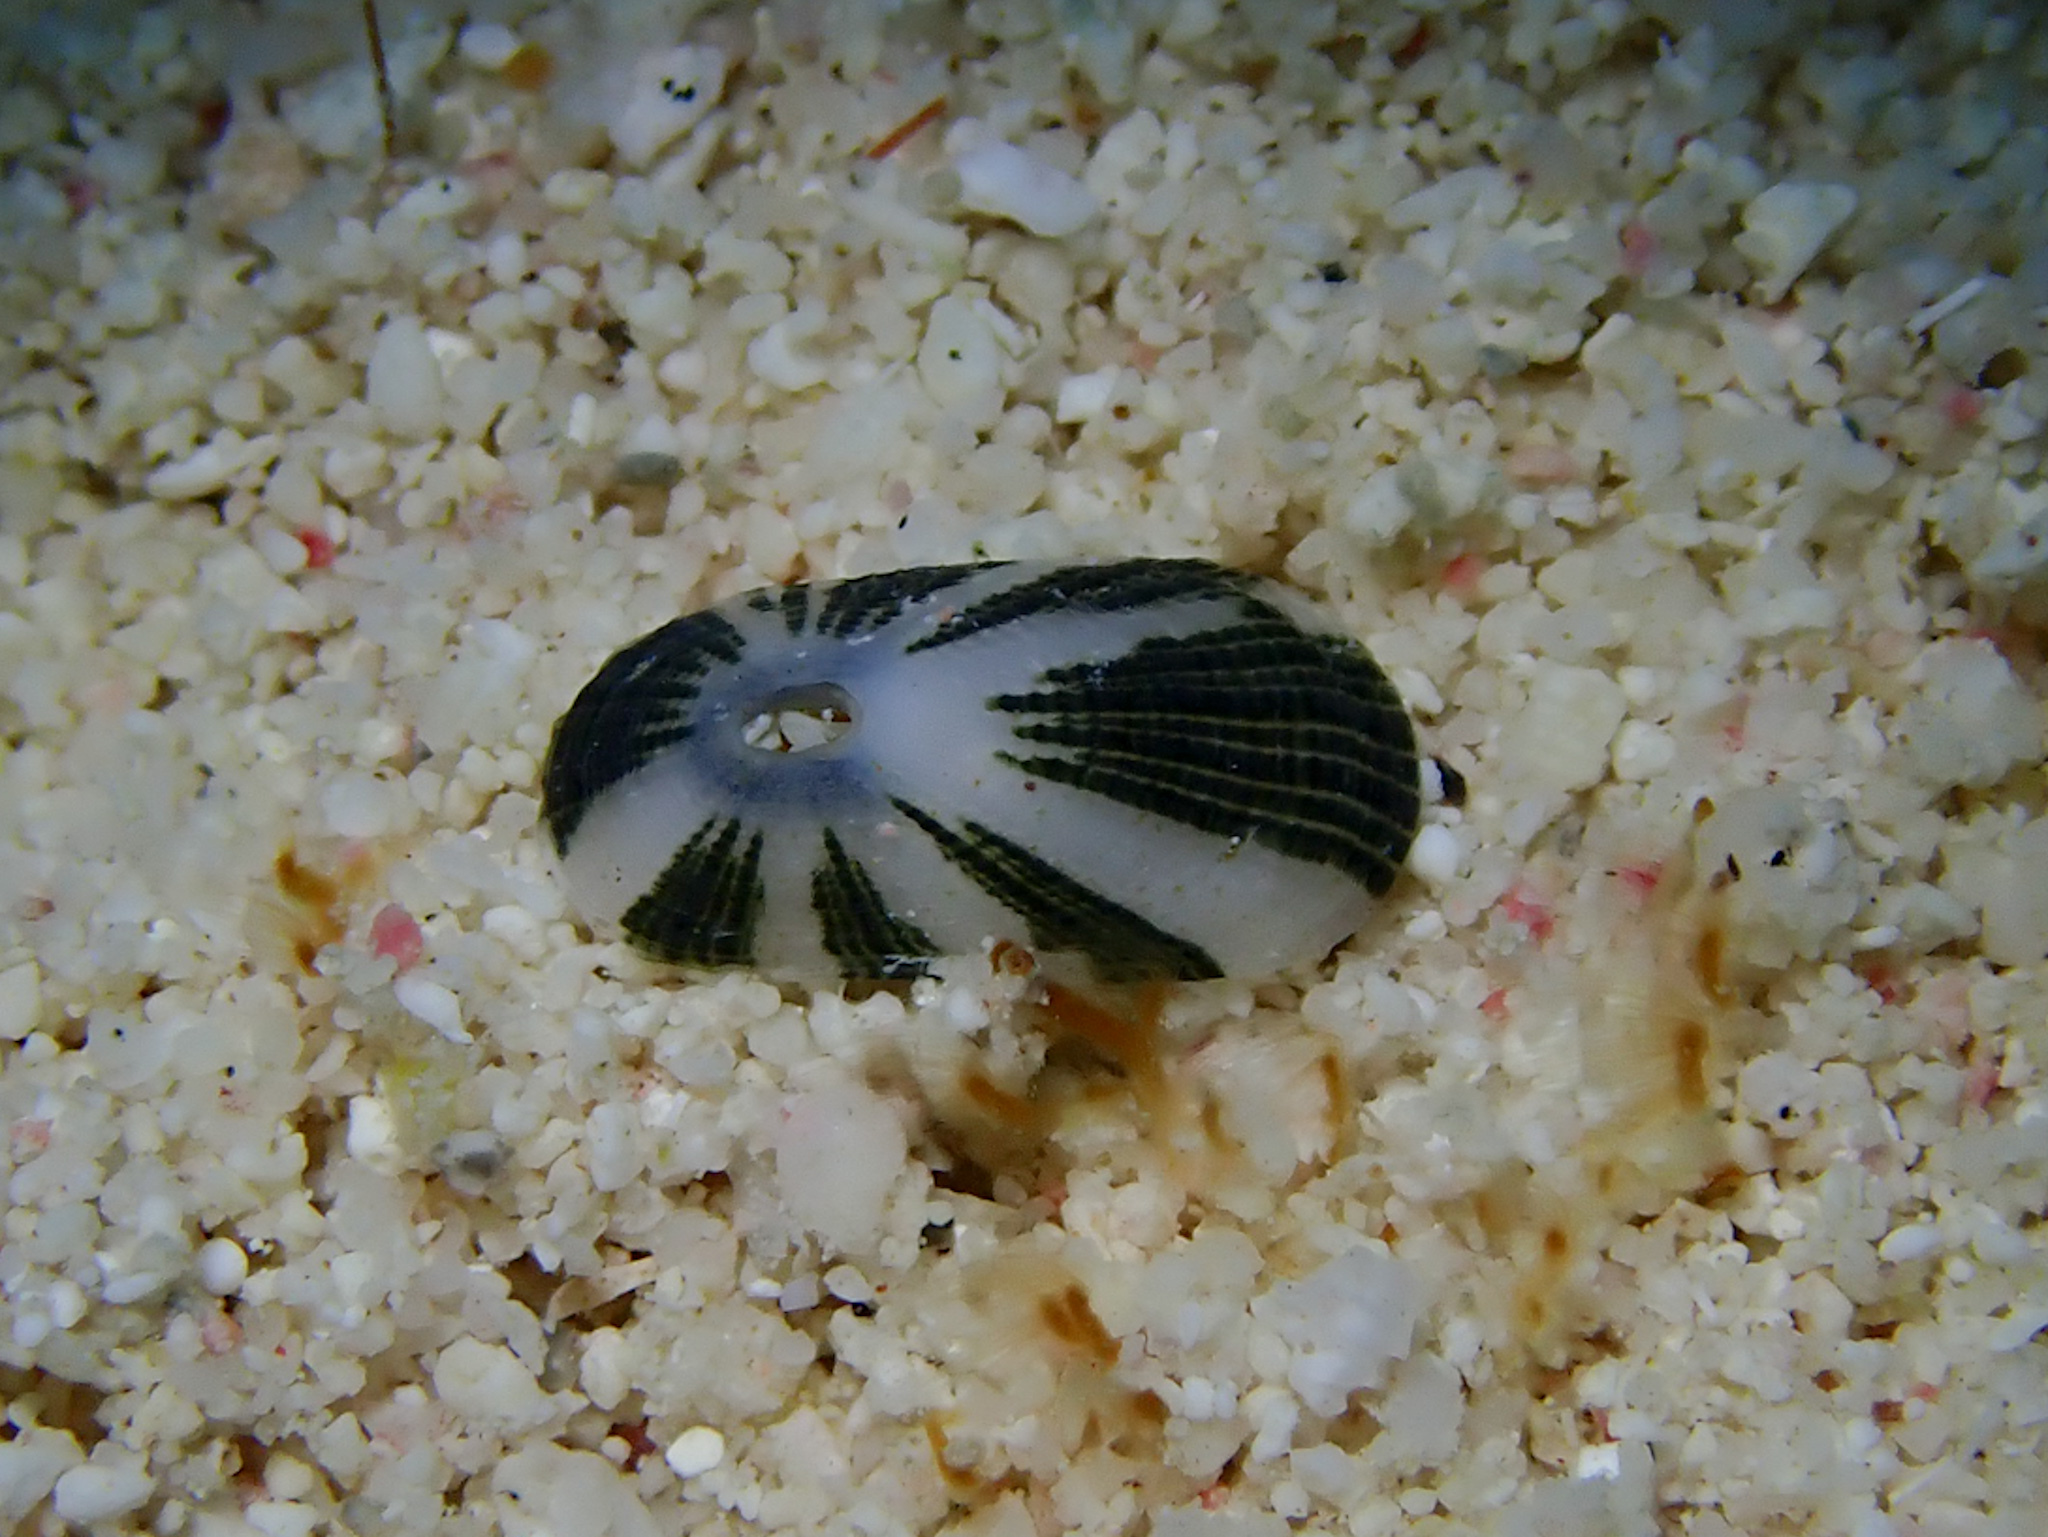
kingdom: Animalia
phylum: Mollusca
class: Gastropoda
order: Lepetellida
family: Fissurellidae
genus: Diodora
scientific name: Diodora minuta
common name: Dwarf keyhole limpet
